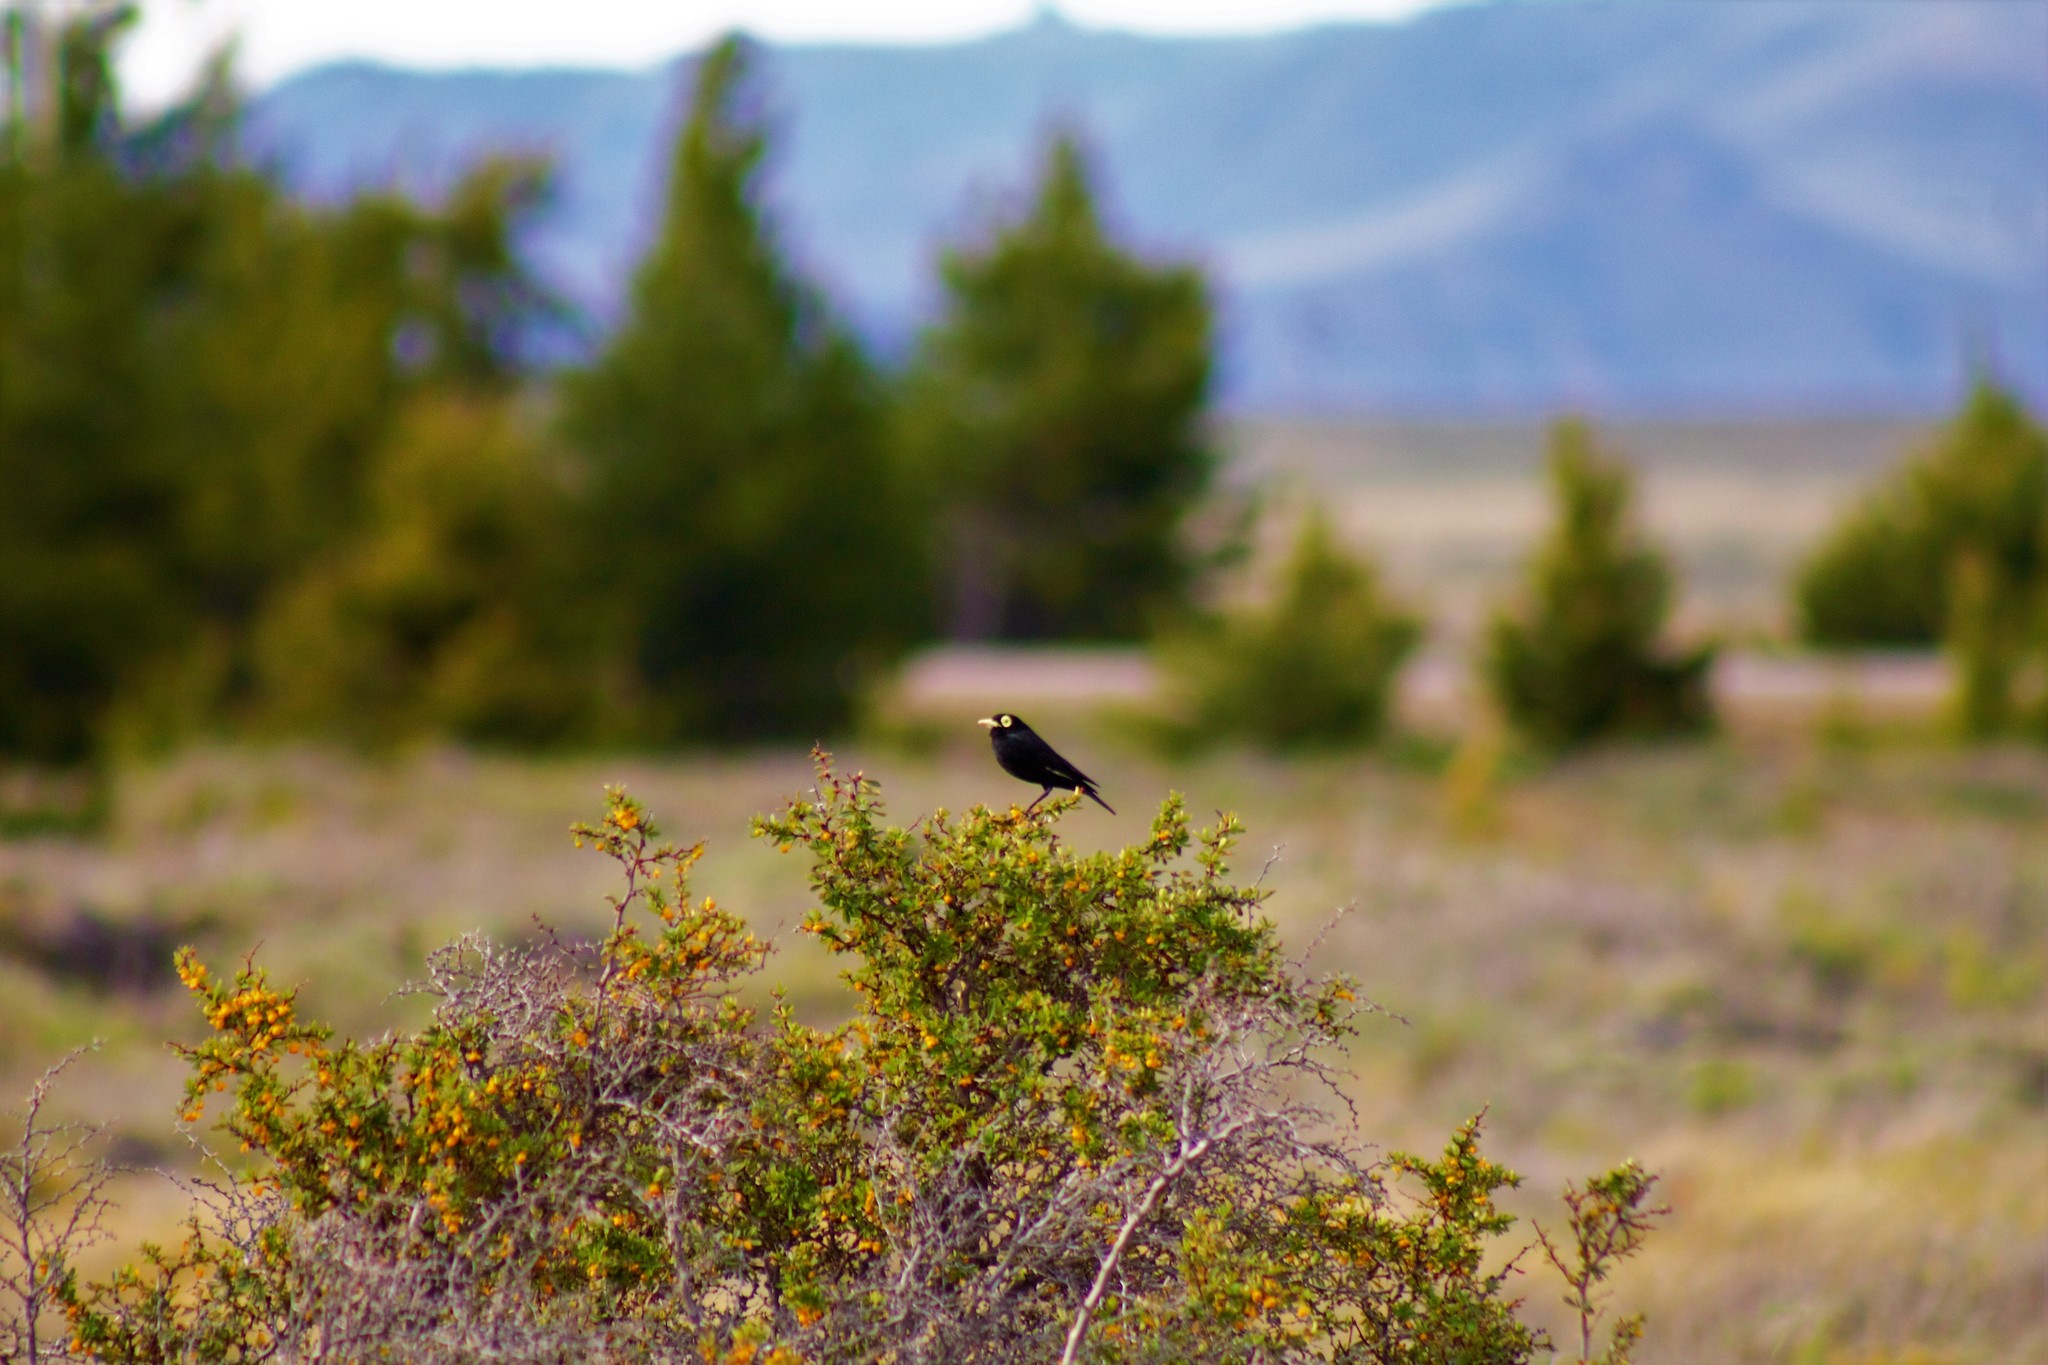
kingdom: Animalia
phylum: Chordata
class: Aves
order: Passeriformes
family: Tyrannidae
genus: Hymenops
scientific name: Hymenops perspicillatus
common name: Spectacled tyrant
